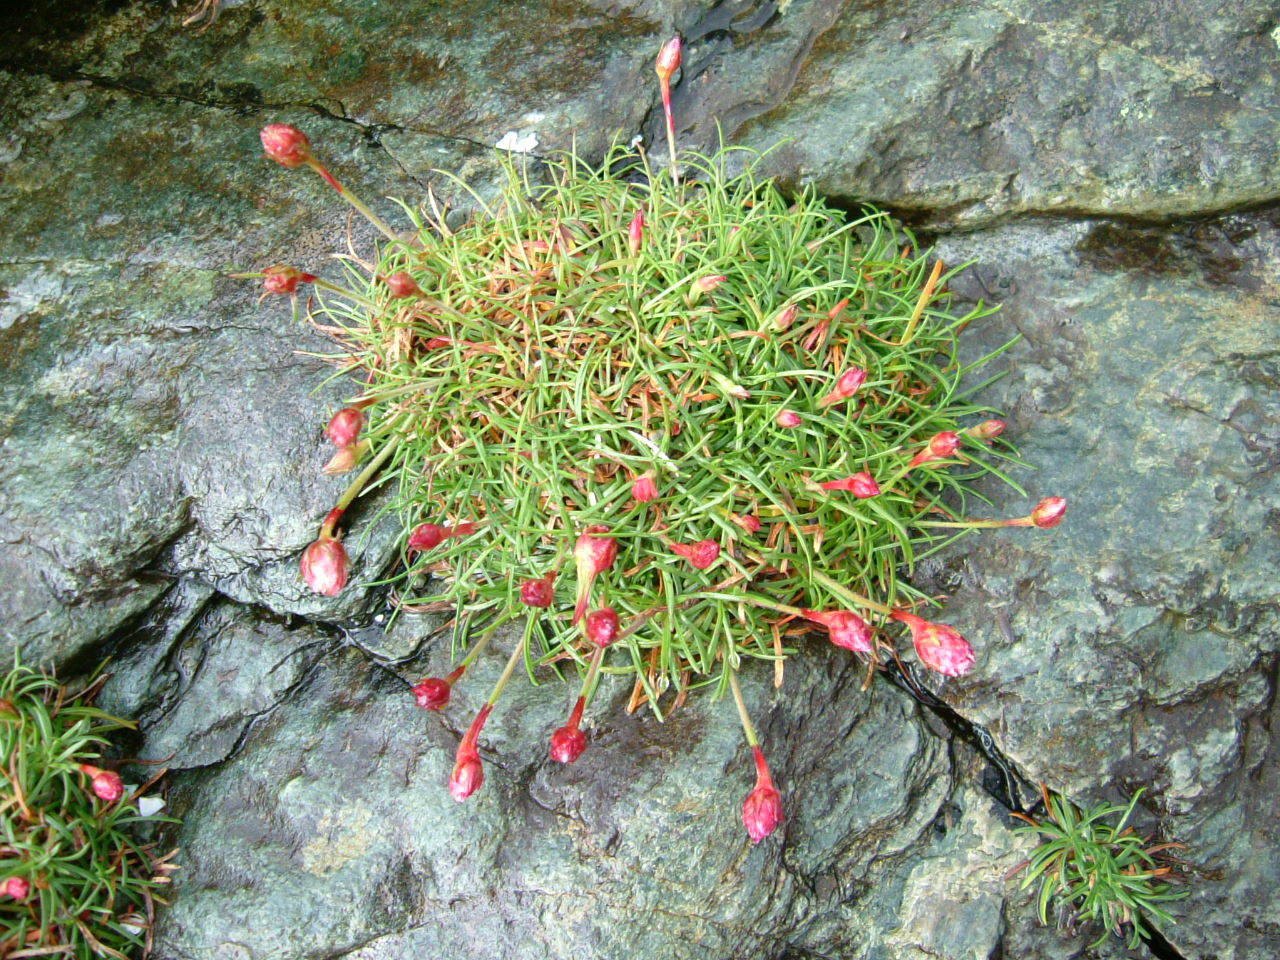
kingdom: Plantae
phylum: Tracheophyta
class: Magnoliopsida
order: Caryophyllales
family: Plumbaginaceae
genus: Armeria
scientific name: Armeria maritima
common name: Thrift
